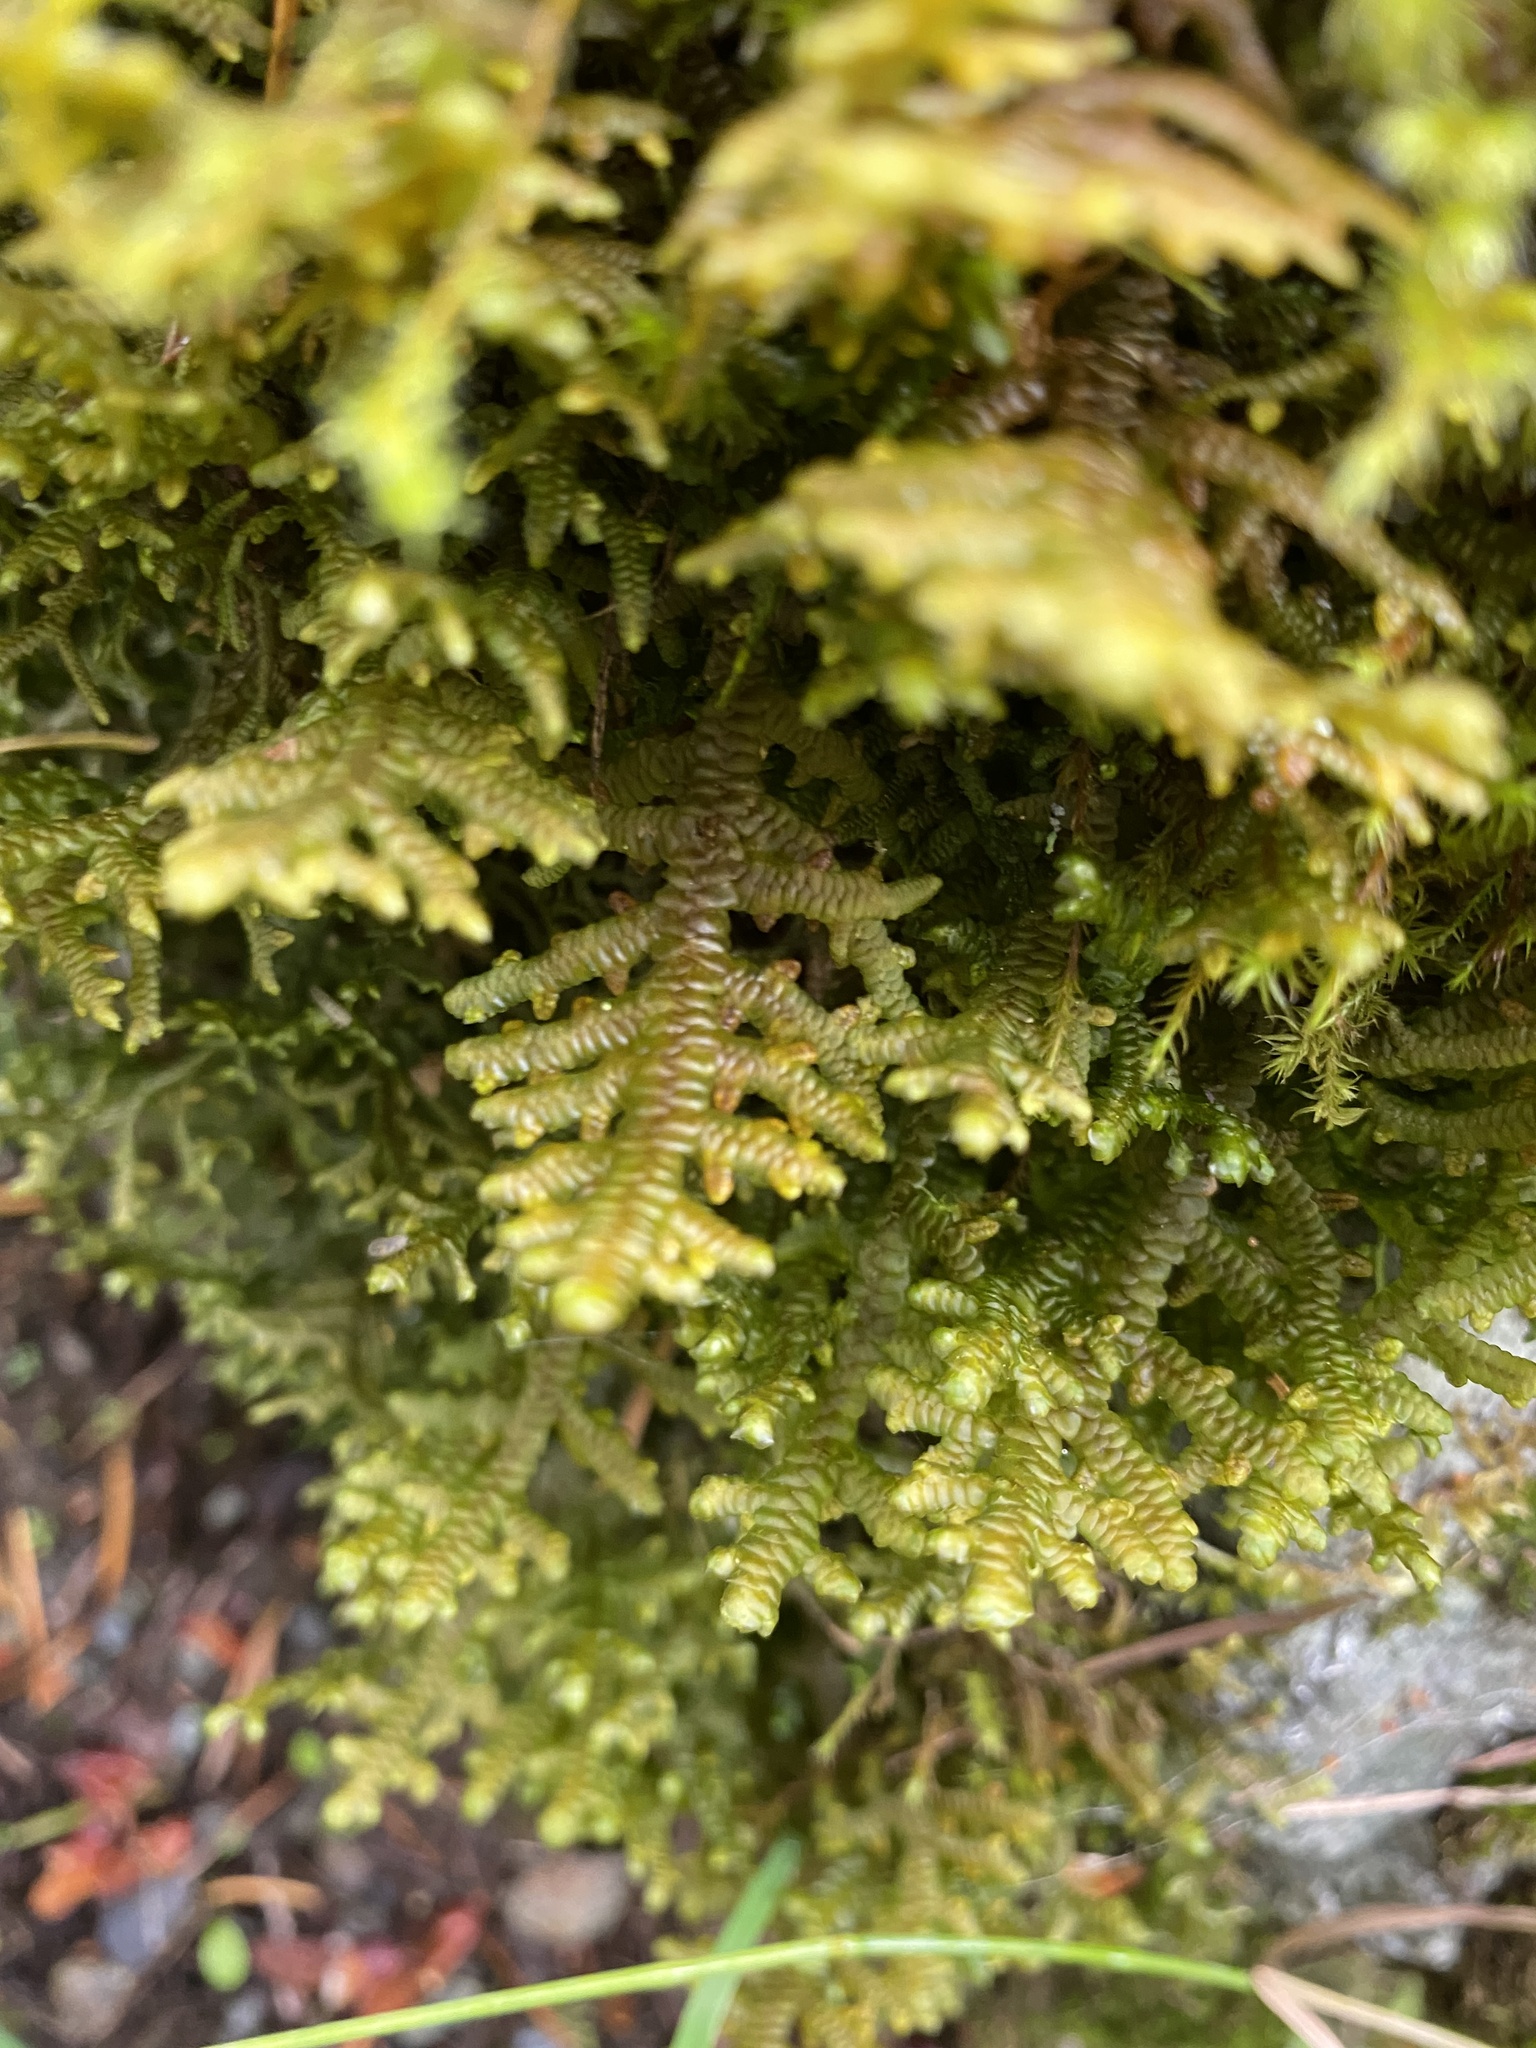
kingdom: Plantae
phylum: Marchantiophyta
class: Jungermanniopsida
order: Porellales
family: Porellaceae
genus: Porella
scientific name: Porella navicularis
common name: Tree ruffle liverwort
